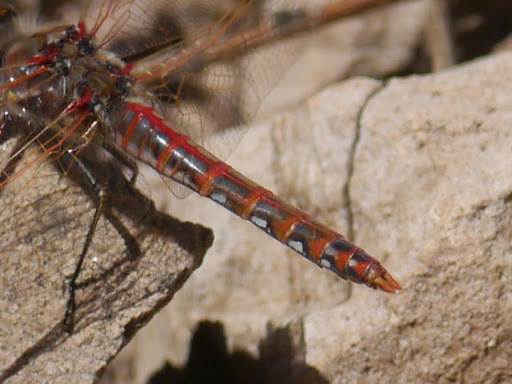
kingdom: Animalia
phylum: Arthropoda
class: Insecta
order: Odonata
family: Libellulidae
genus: Sympetrum
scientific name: Sympetrum corruptum
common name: Variegated meadowhawk
